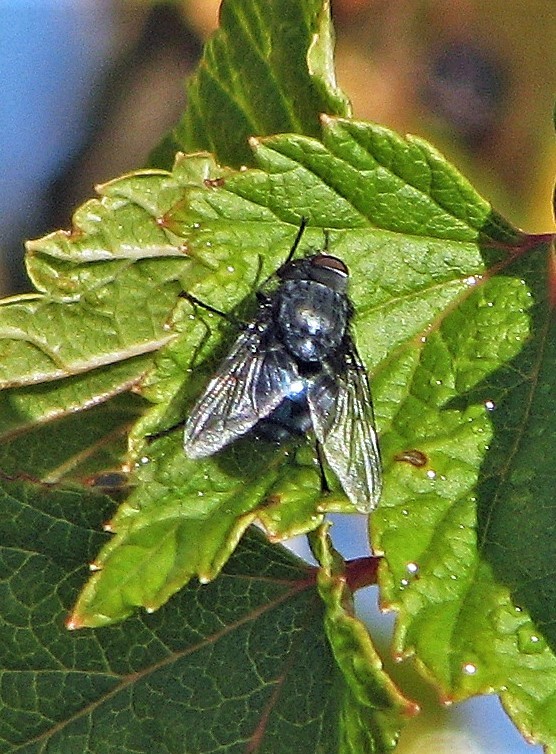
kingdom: Animalia
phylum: Arthropoda
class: Insecta
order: Diptera
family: Calliphoridae
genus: Calliphora
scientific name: Calliphora vicina
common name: Common blow flie
